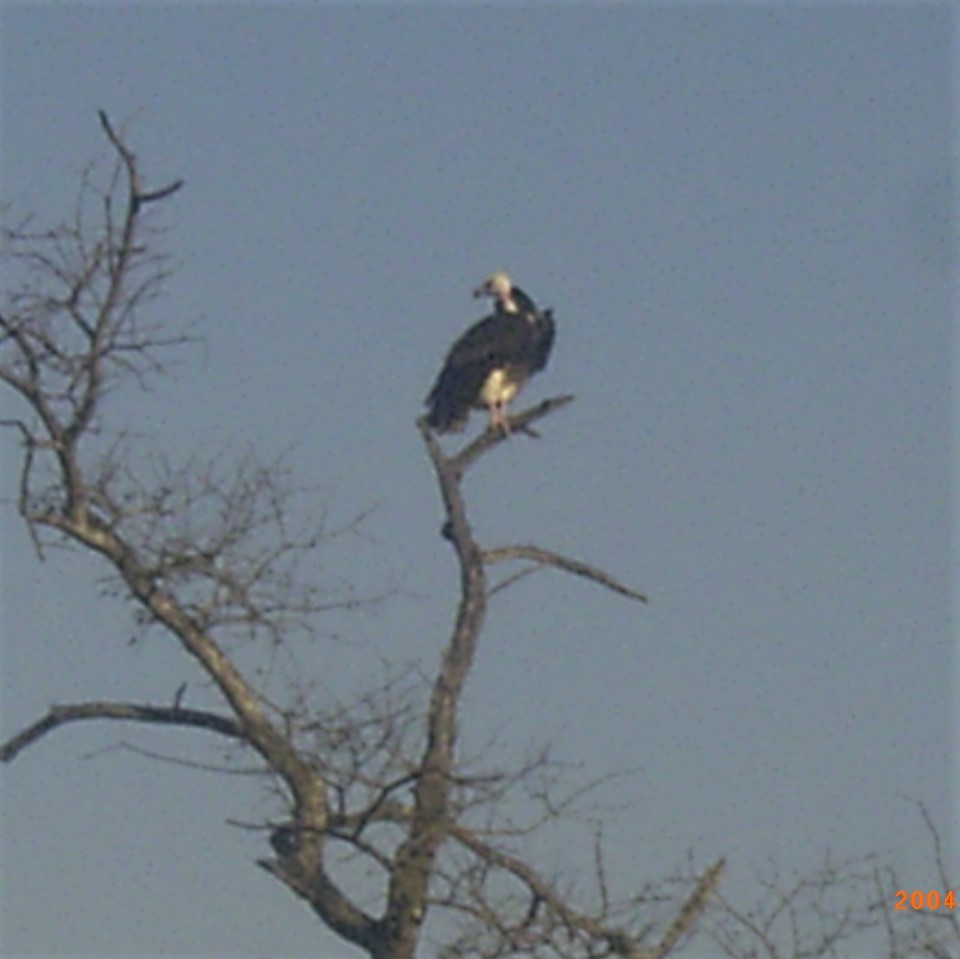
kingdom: Animalia
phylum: Chordata
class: Aves
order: Accipitriformes
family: Accipitridae
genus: Trigonoceps
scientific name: Trigonoceps occipitalis
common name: White-headed vulture
